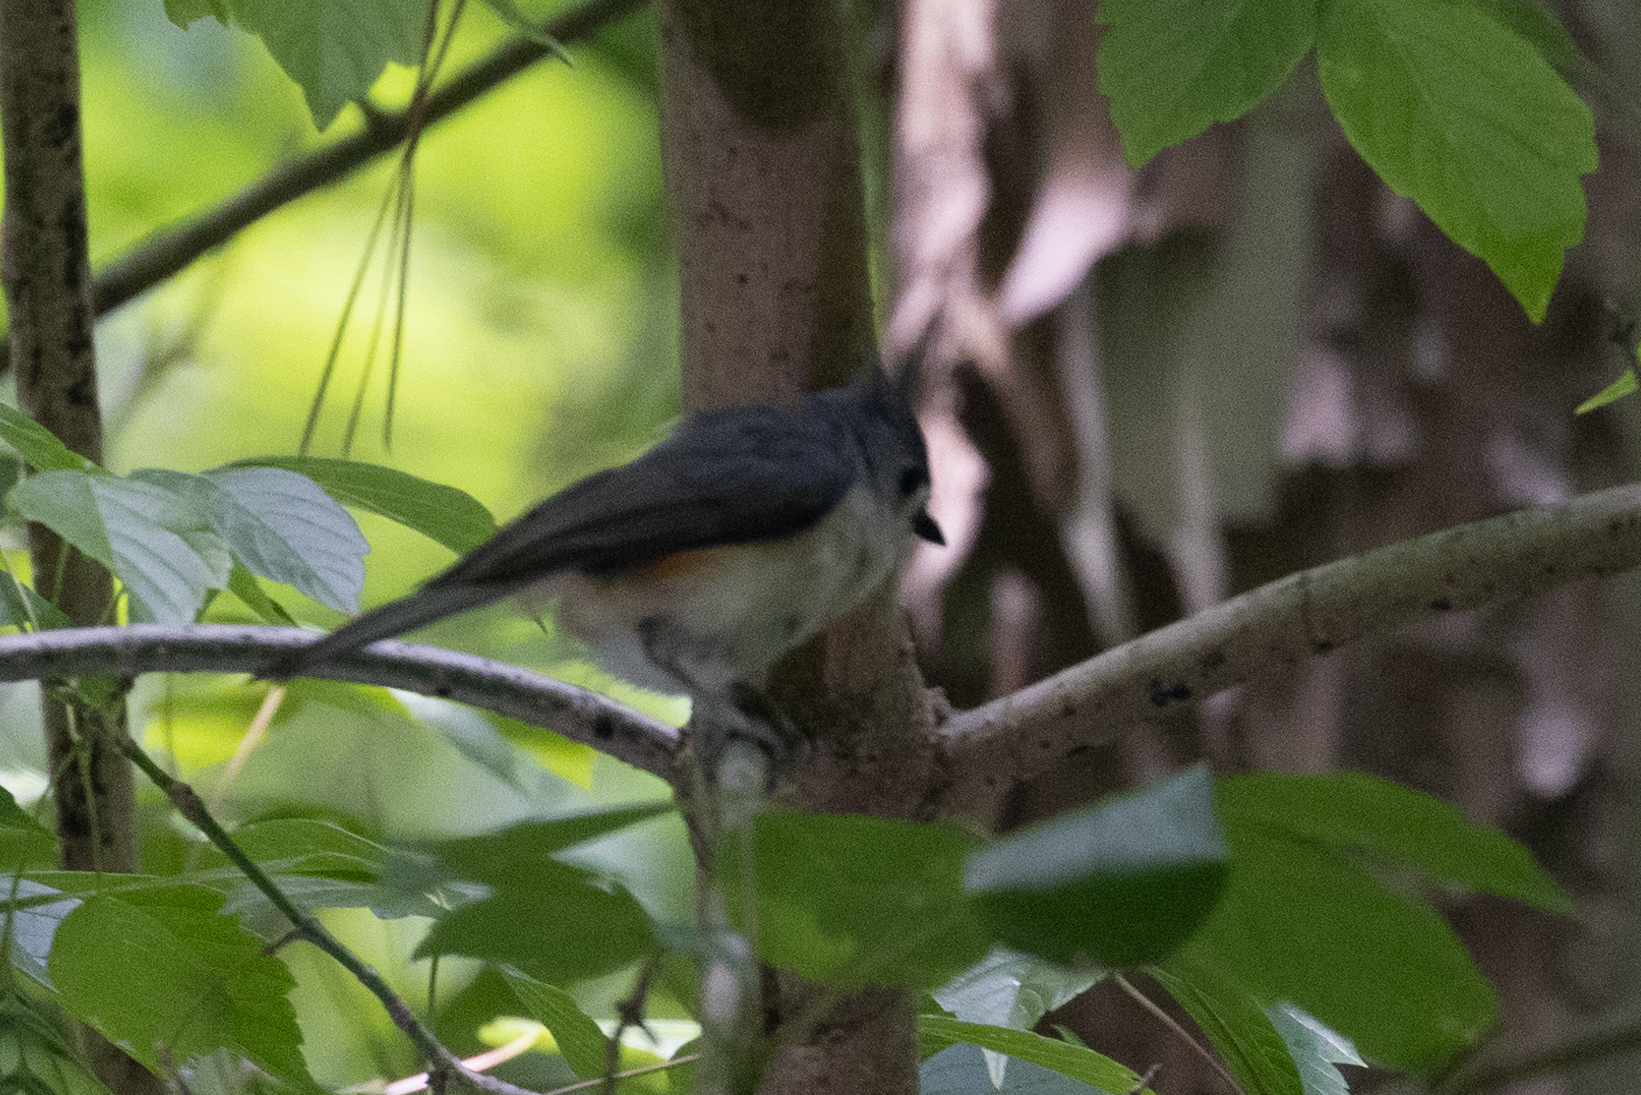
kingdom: Animalia
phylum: Chordata
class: Aves
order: Passeriformes
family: Paridae
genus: Baeolophus
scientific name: Baeolophus bicolor
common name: Tufted titmouse
